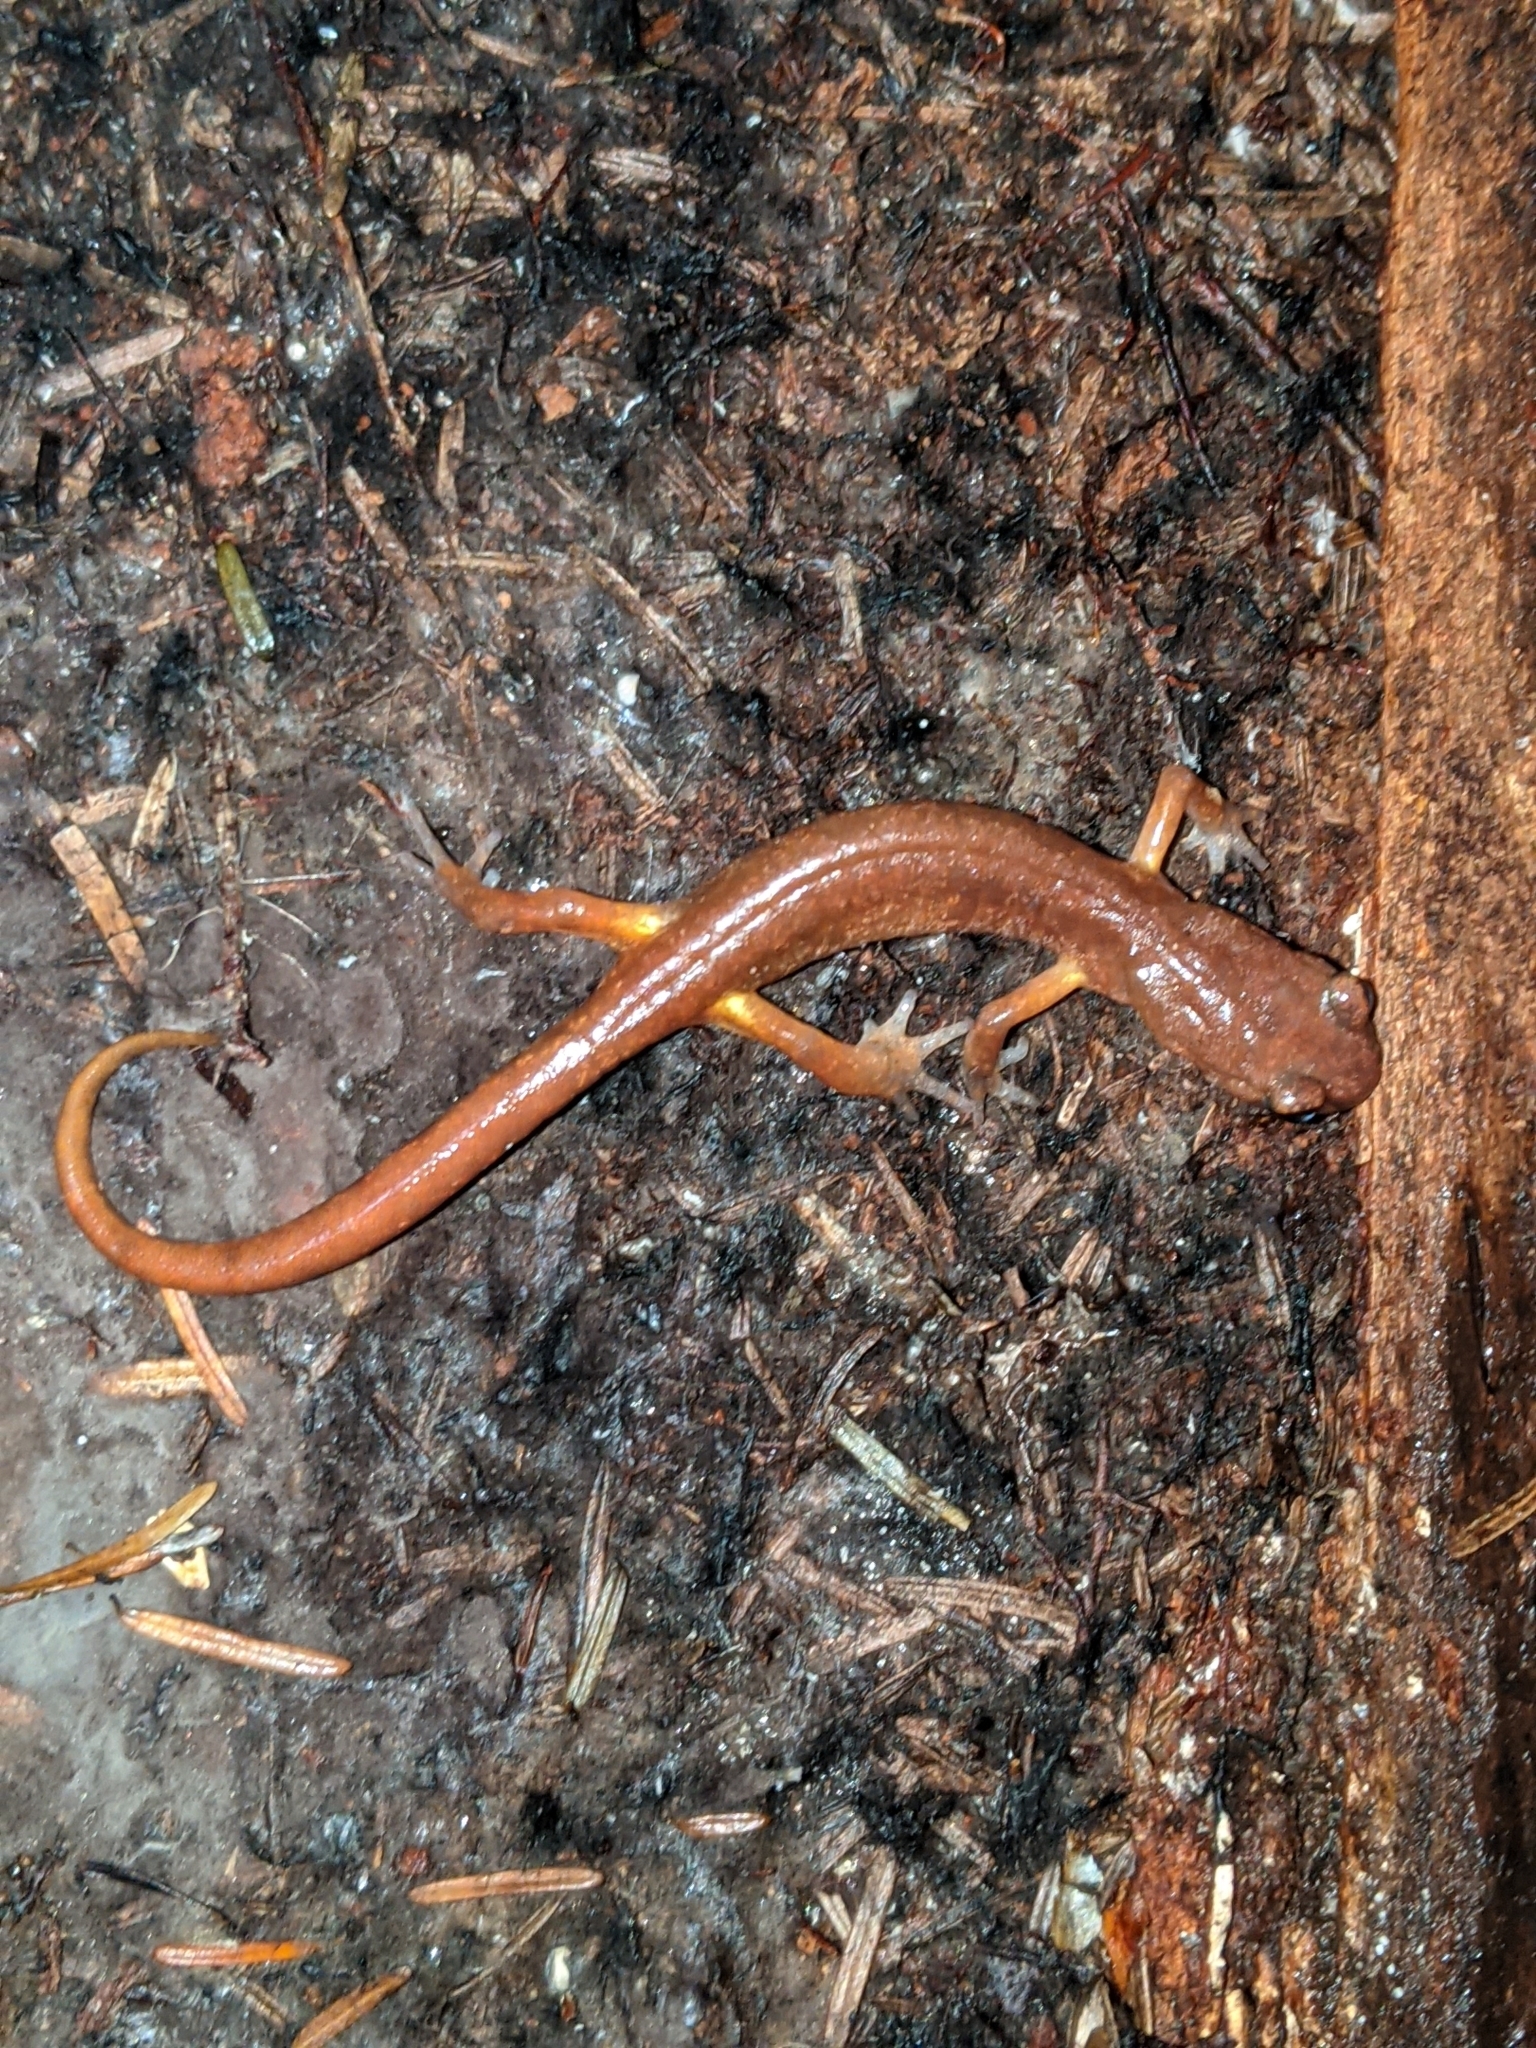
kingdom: Animalia
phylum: Chordata
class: Amphibia
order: Caudata
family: Plethodontidae
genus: Ensatina
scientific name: Ensatina eschscholtzii
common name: Ensatina
